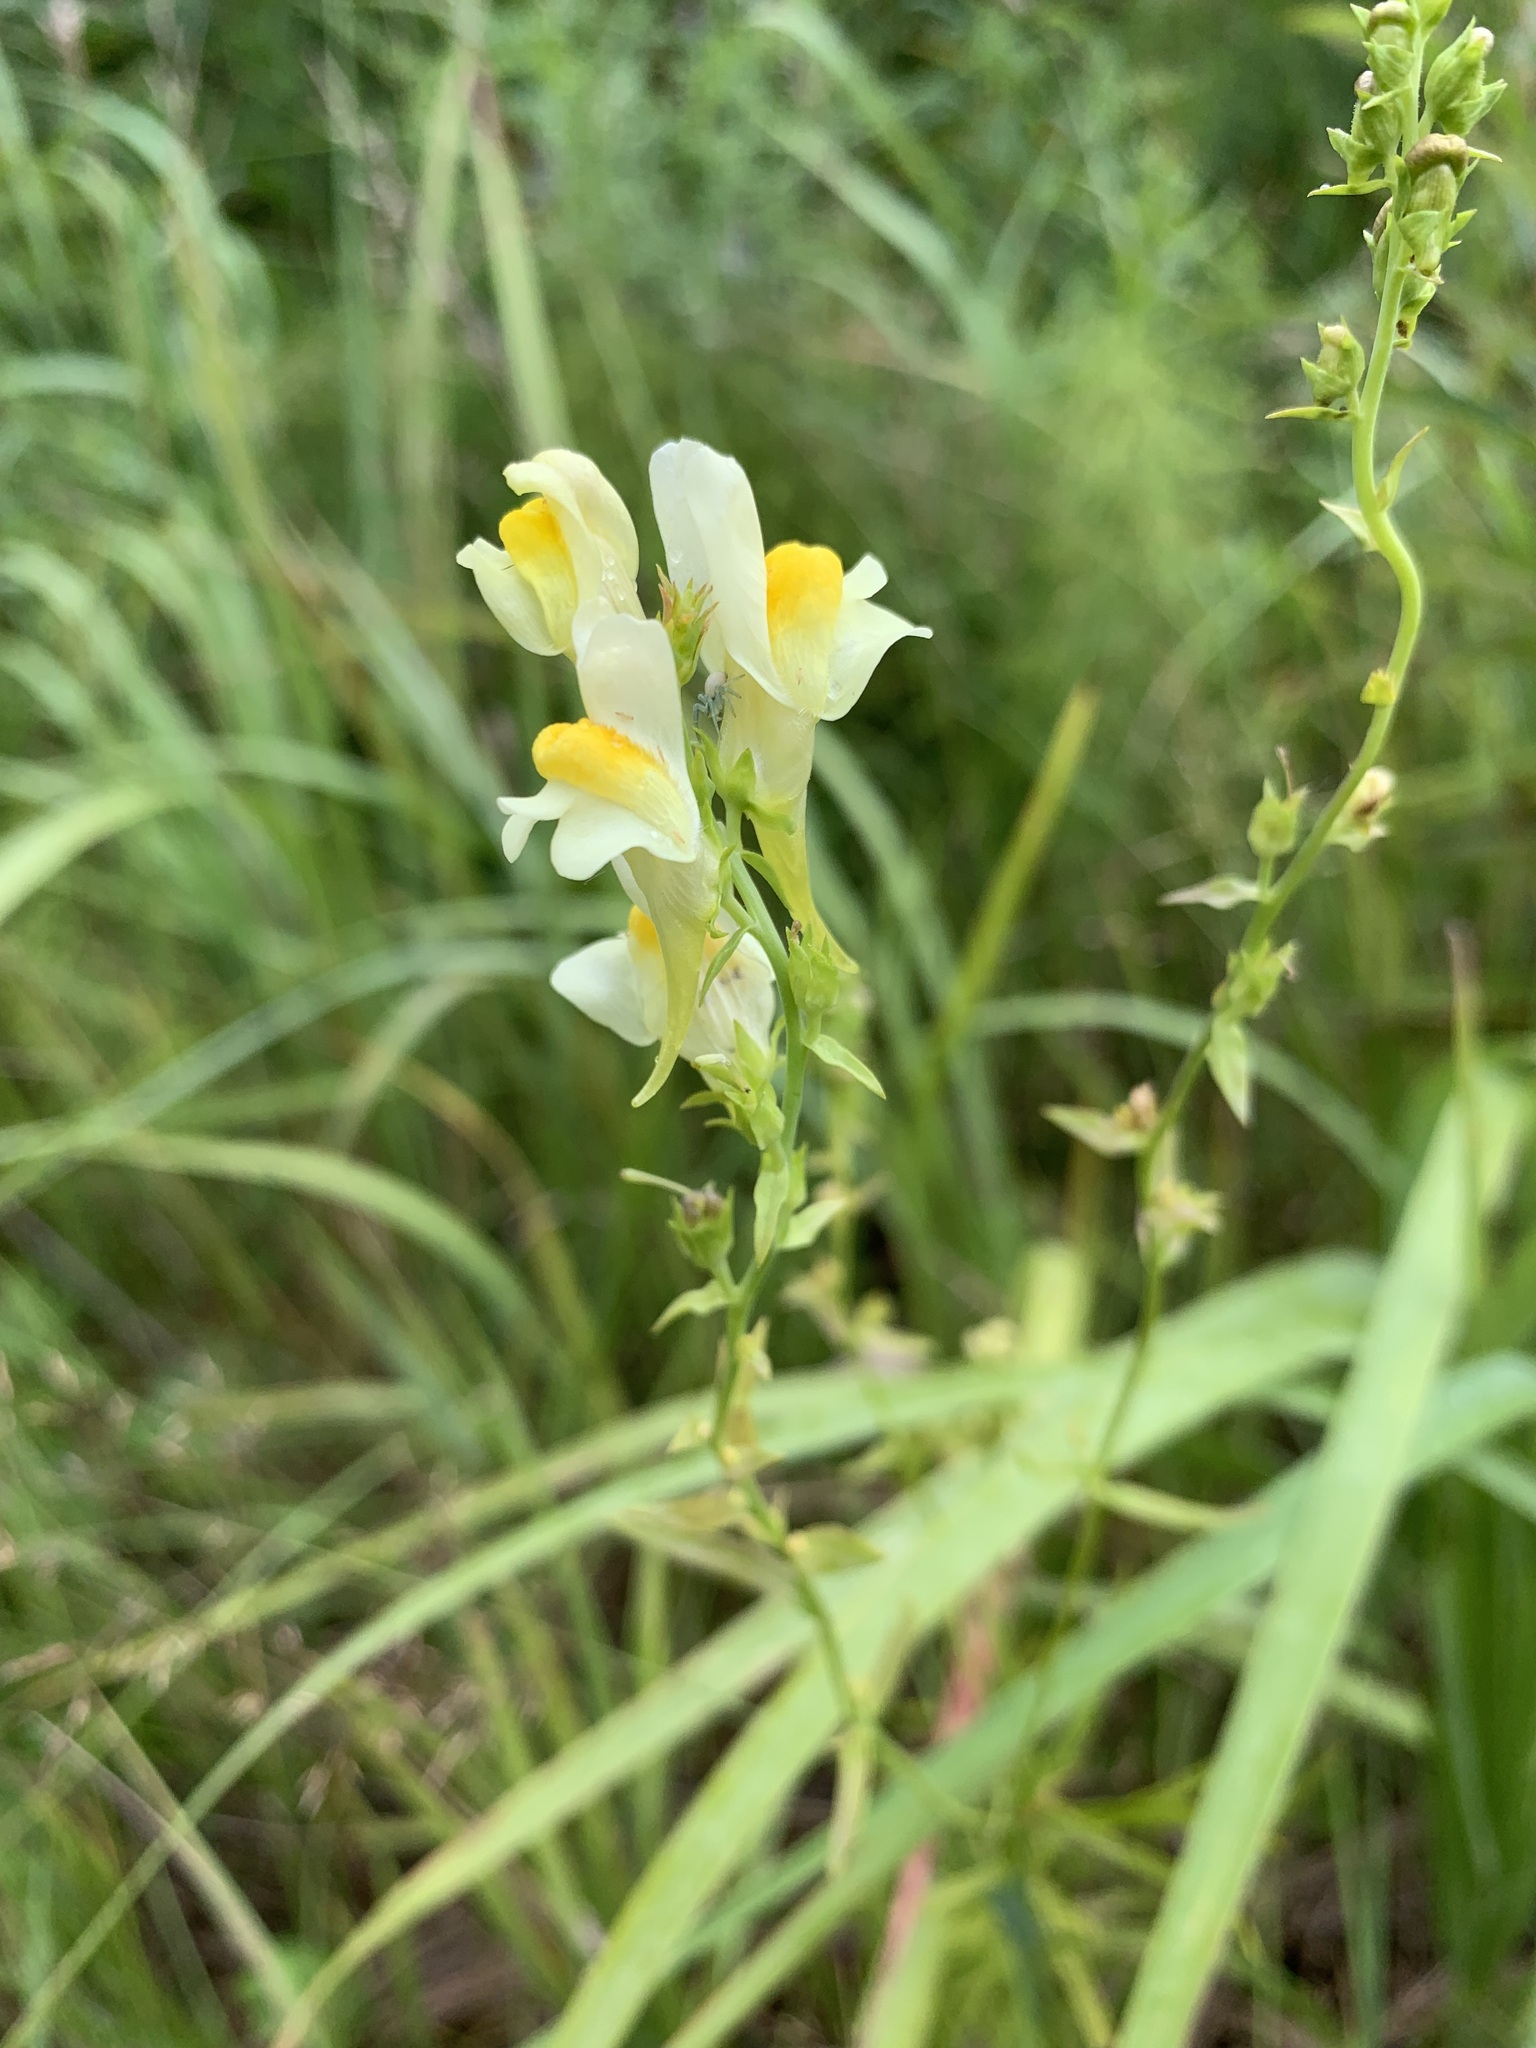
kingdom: Plantae
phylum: Tracheophyta
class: Magnoliopsida
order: Lamiales
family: Plantaginaceae
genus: Linaria
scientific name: Linaria vulgaris
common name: Butter and eggs
